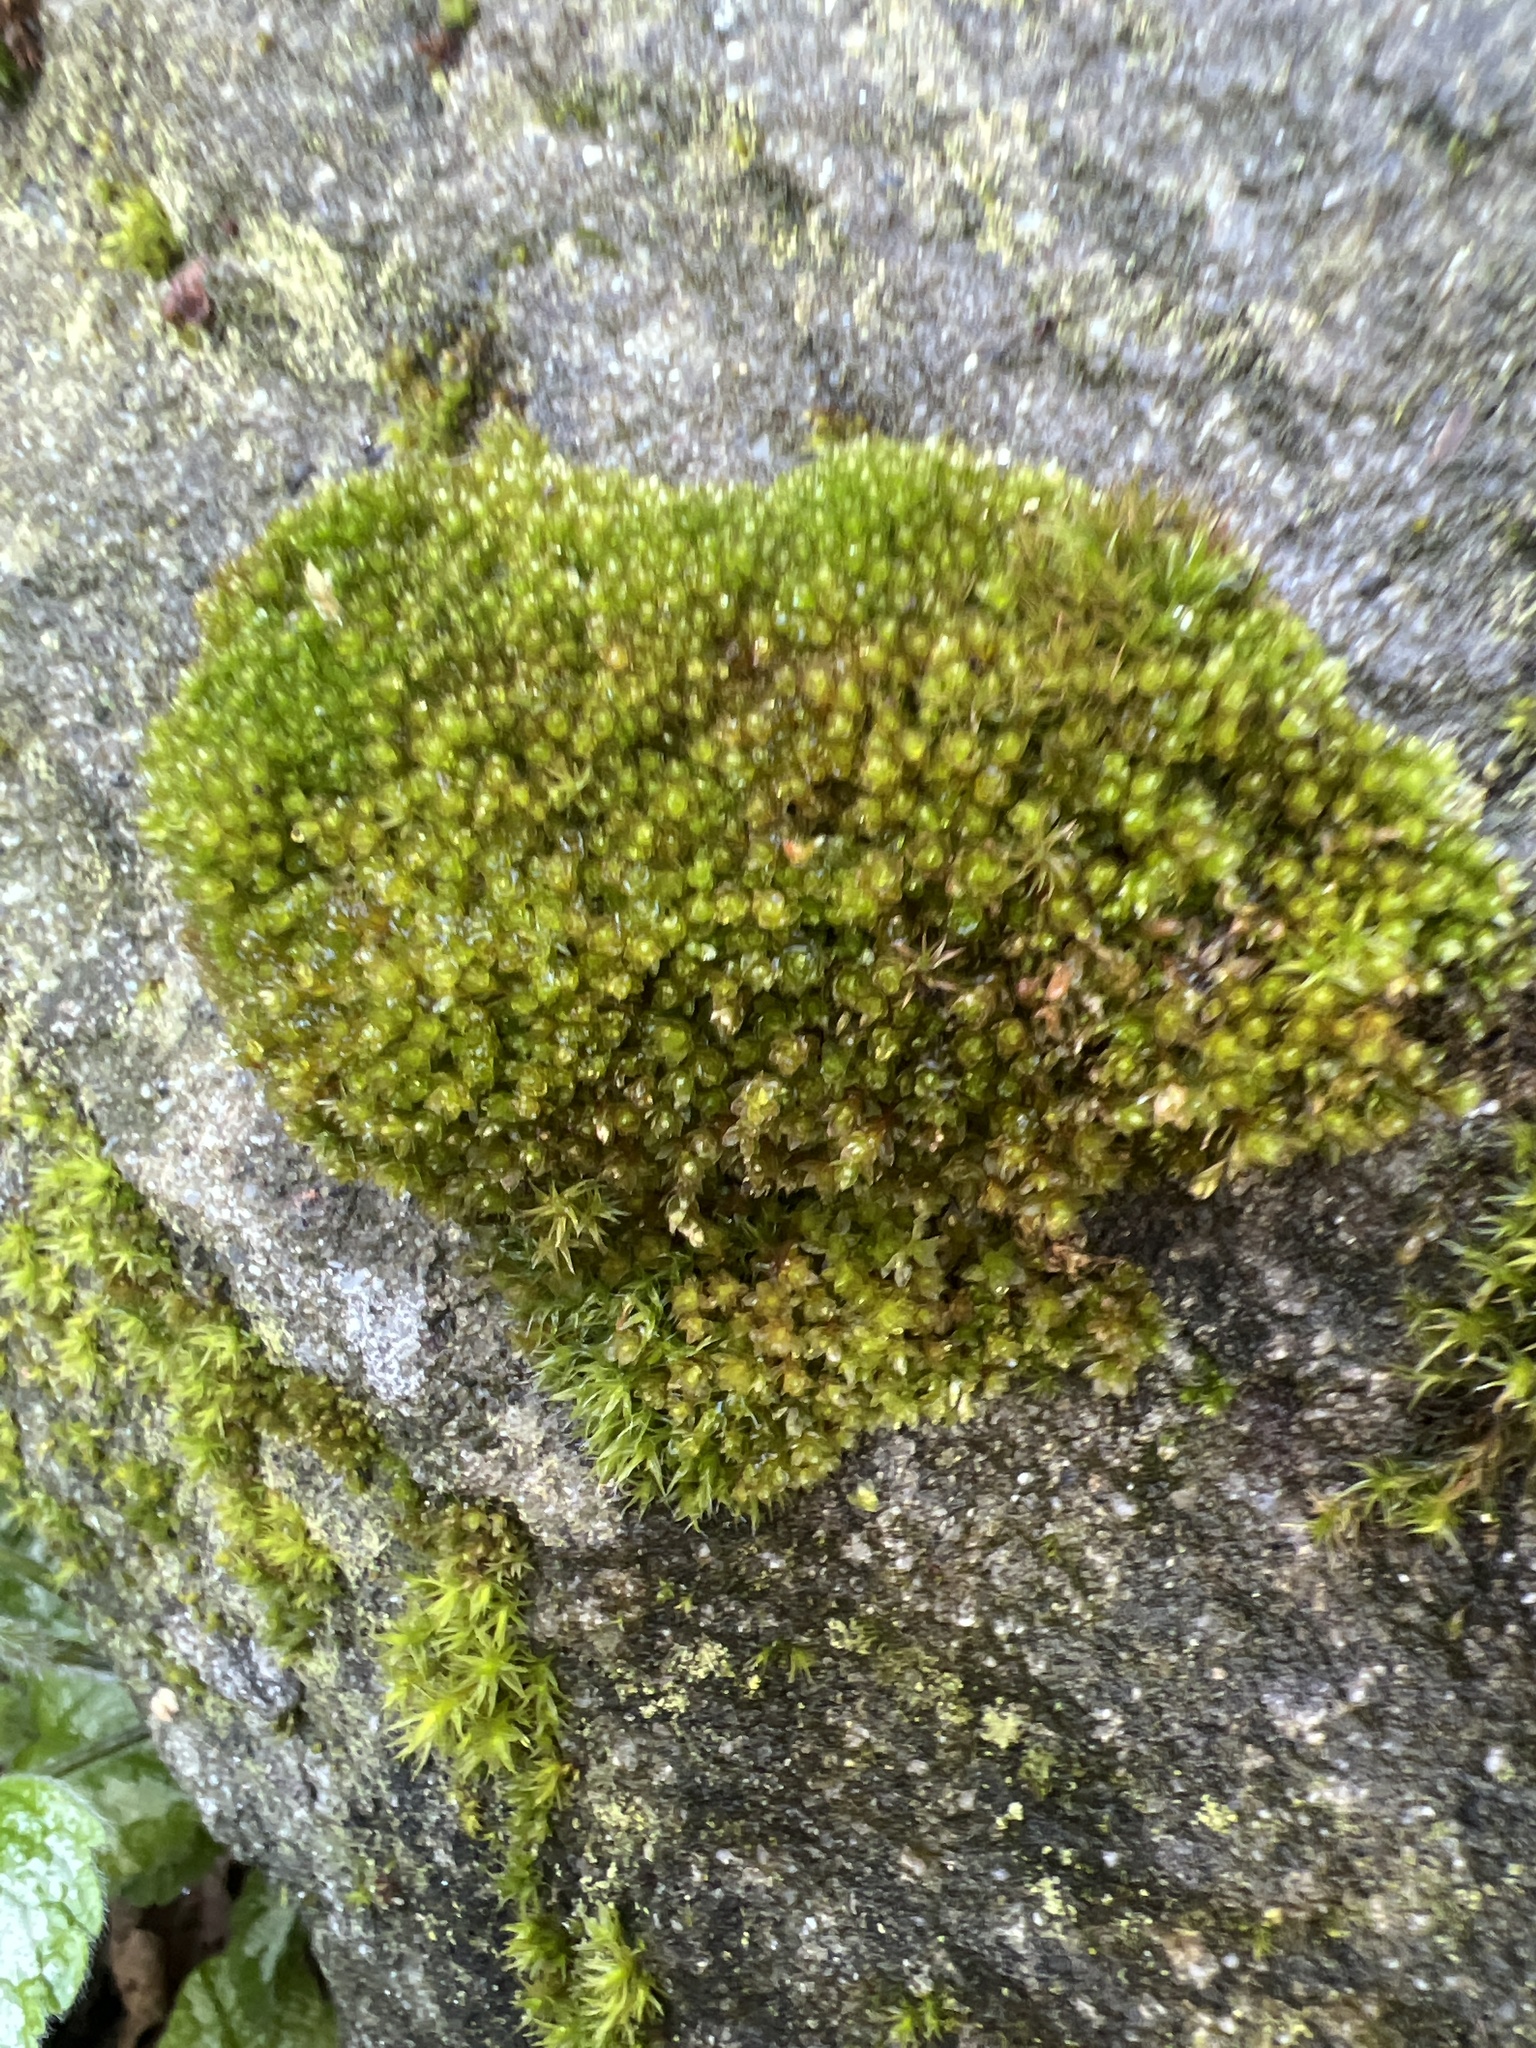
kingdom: Plantae
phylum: Bryophyta
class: Bryopsida
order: Bryales
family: Bryaceae
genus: Rosulabryum
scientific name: Rosulabryum capillare
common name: Capillary thread-moss
